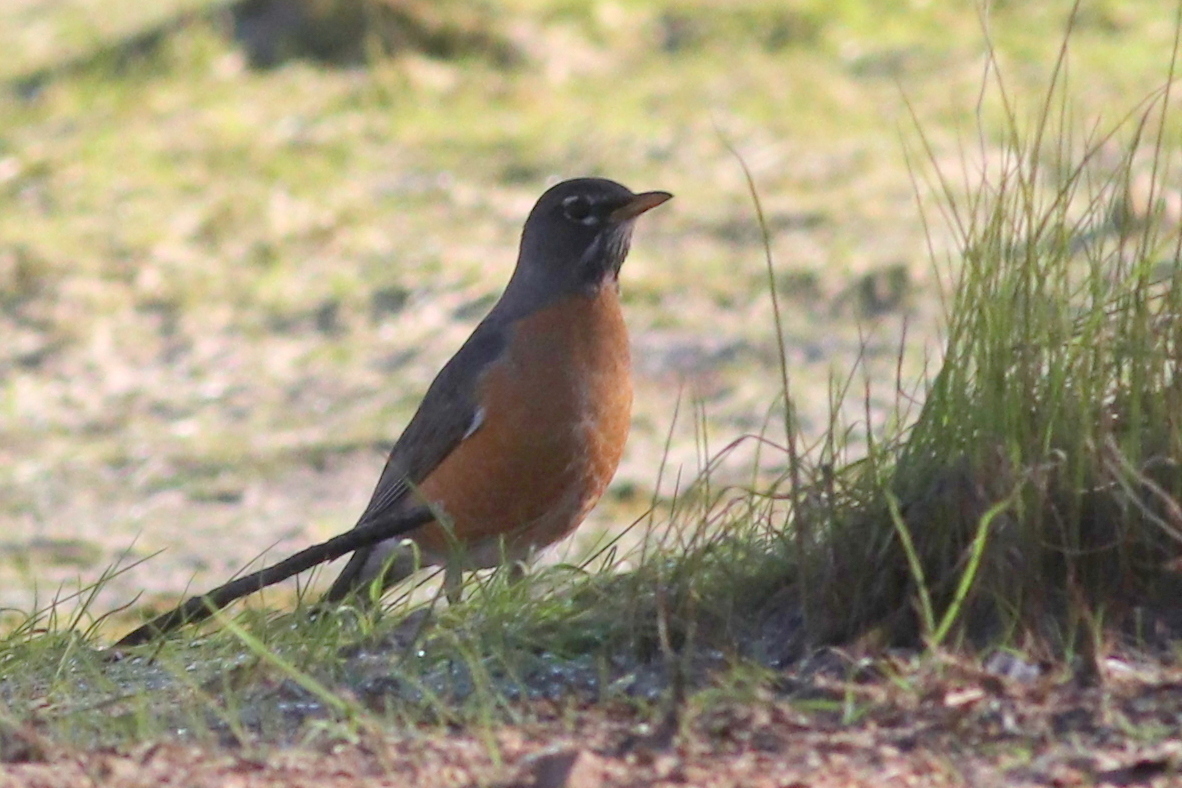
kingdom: Animalia
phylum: Chordata
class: Aves
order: Passeriformes
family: Turdidae
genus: Turdus
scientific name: Turdus migratorius
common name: American robin
